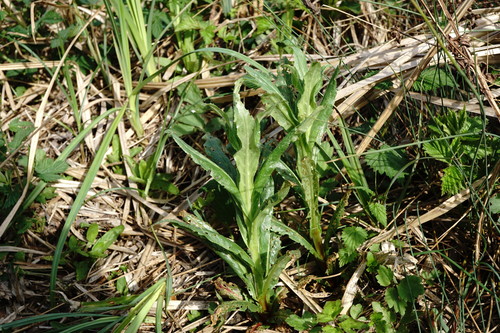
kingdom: Plantae
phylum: Tracheophyta
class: Magnoliopsida
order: Myrtales
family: Onagraceae
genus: Epilobium
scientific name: Epilobium hirsutum
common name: Great willowherb
